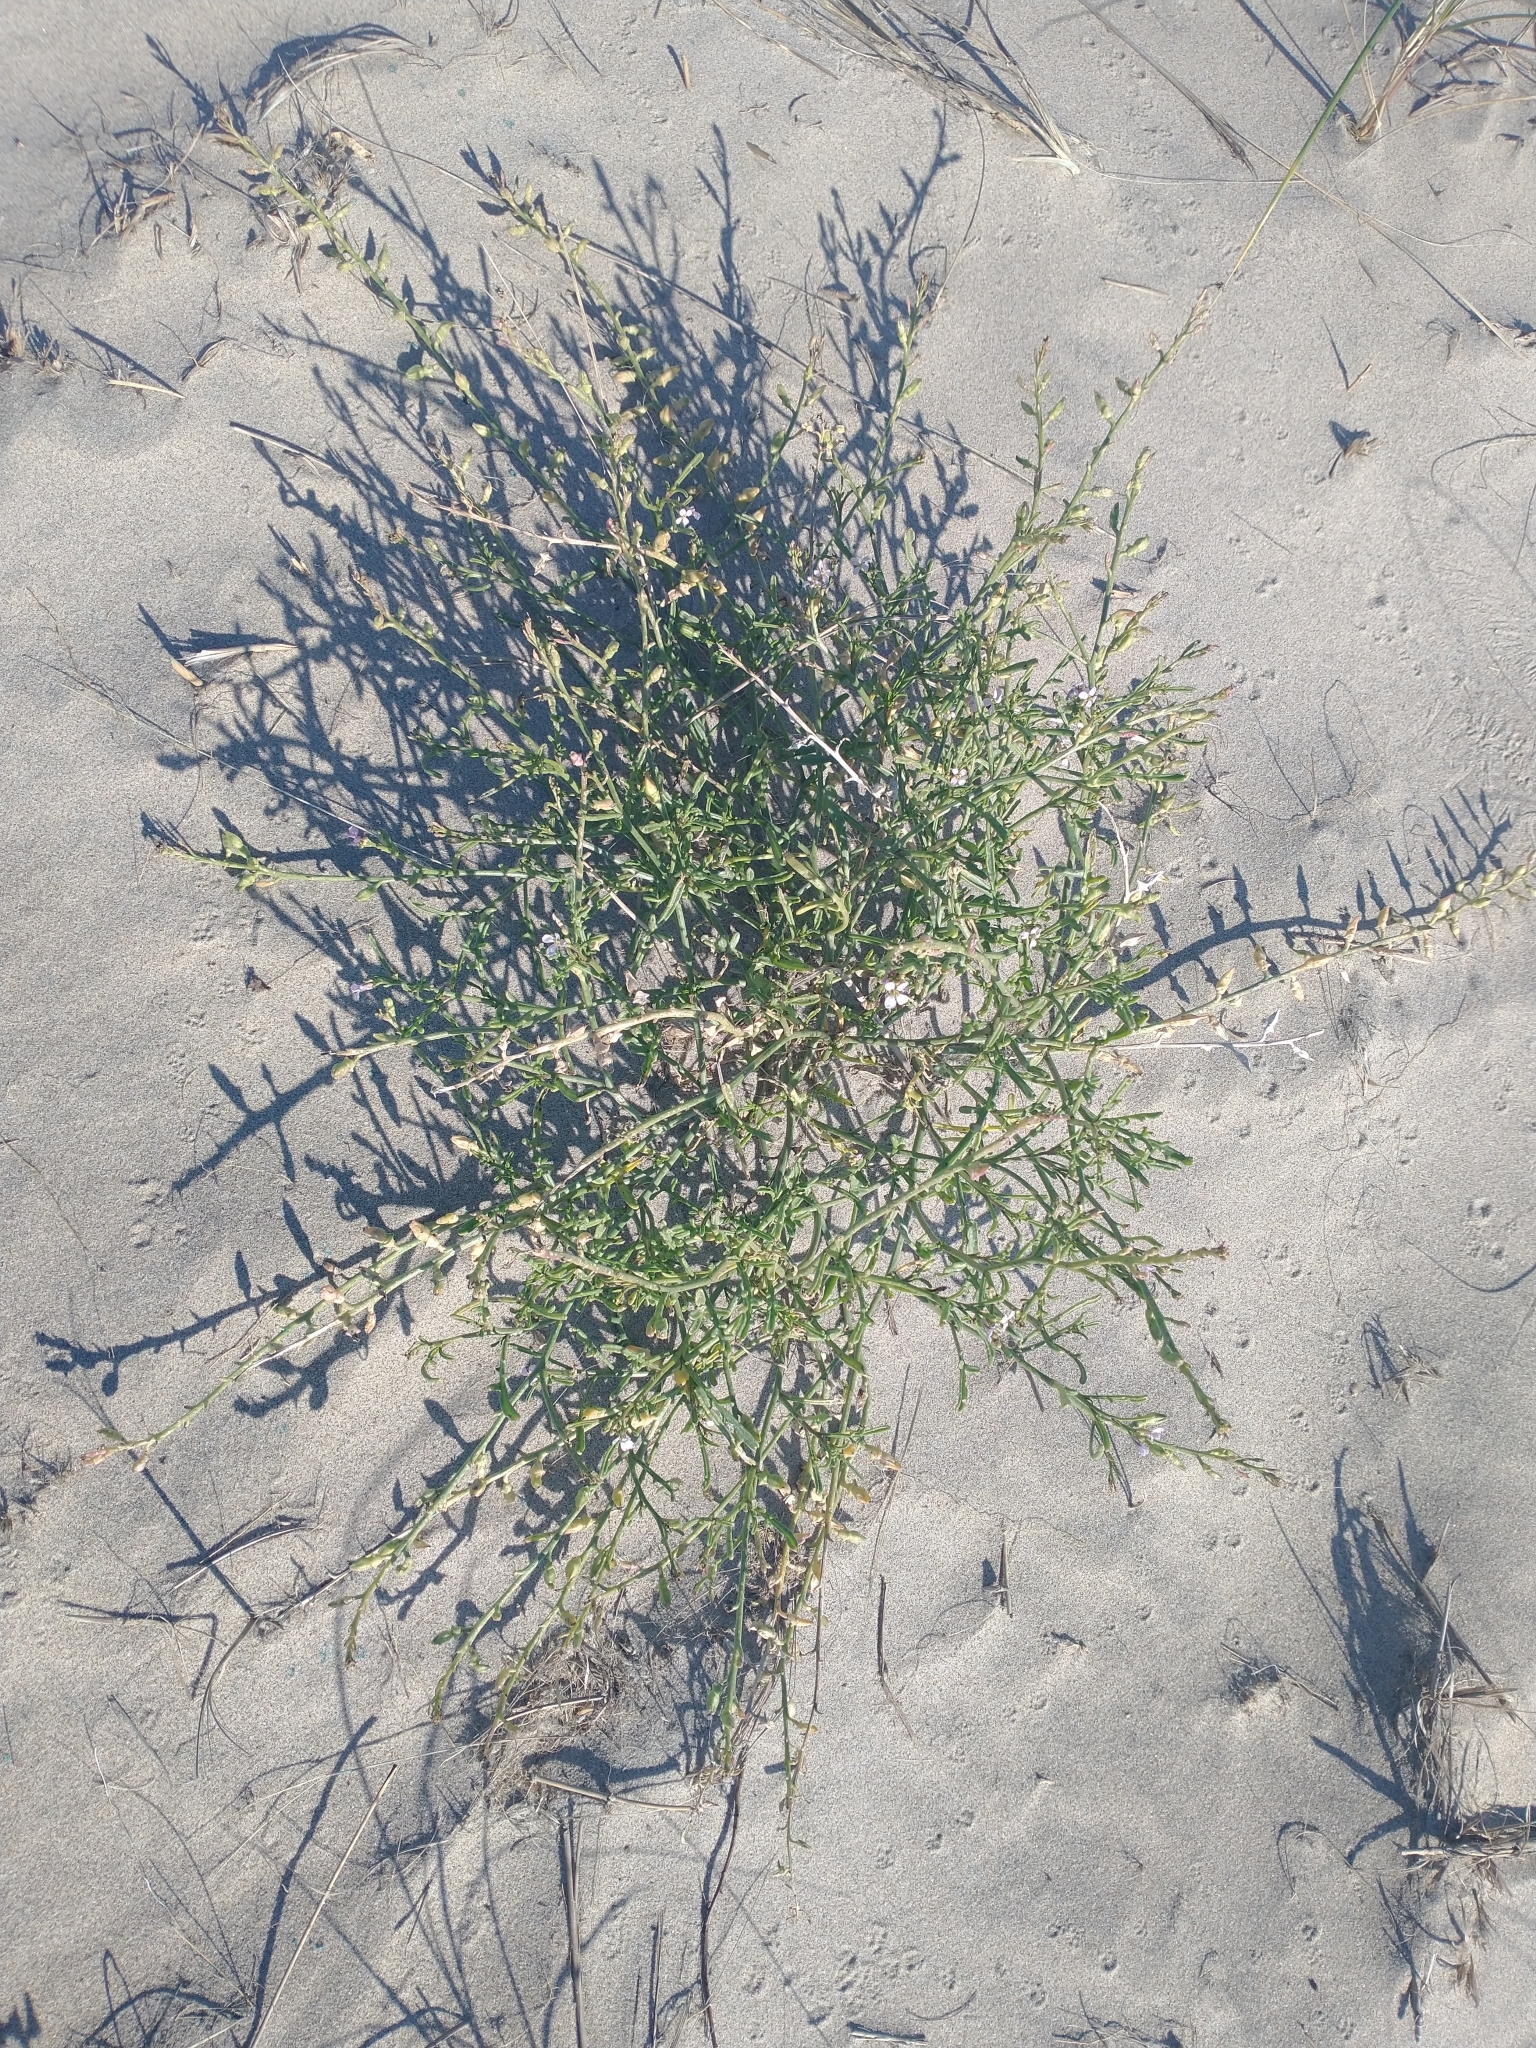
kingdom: Plantae
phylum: Tracheophyta
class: Magnoliopsida
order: Brassicales
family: Brassicaceae
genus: Cakile
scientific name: Cakile maritima
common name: Sea rocket
